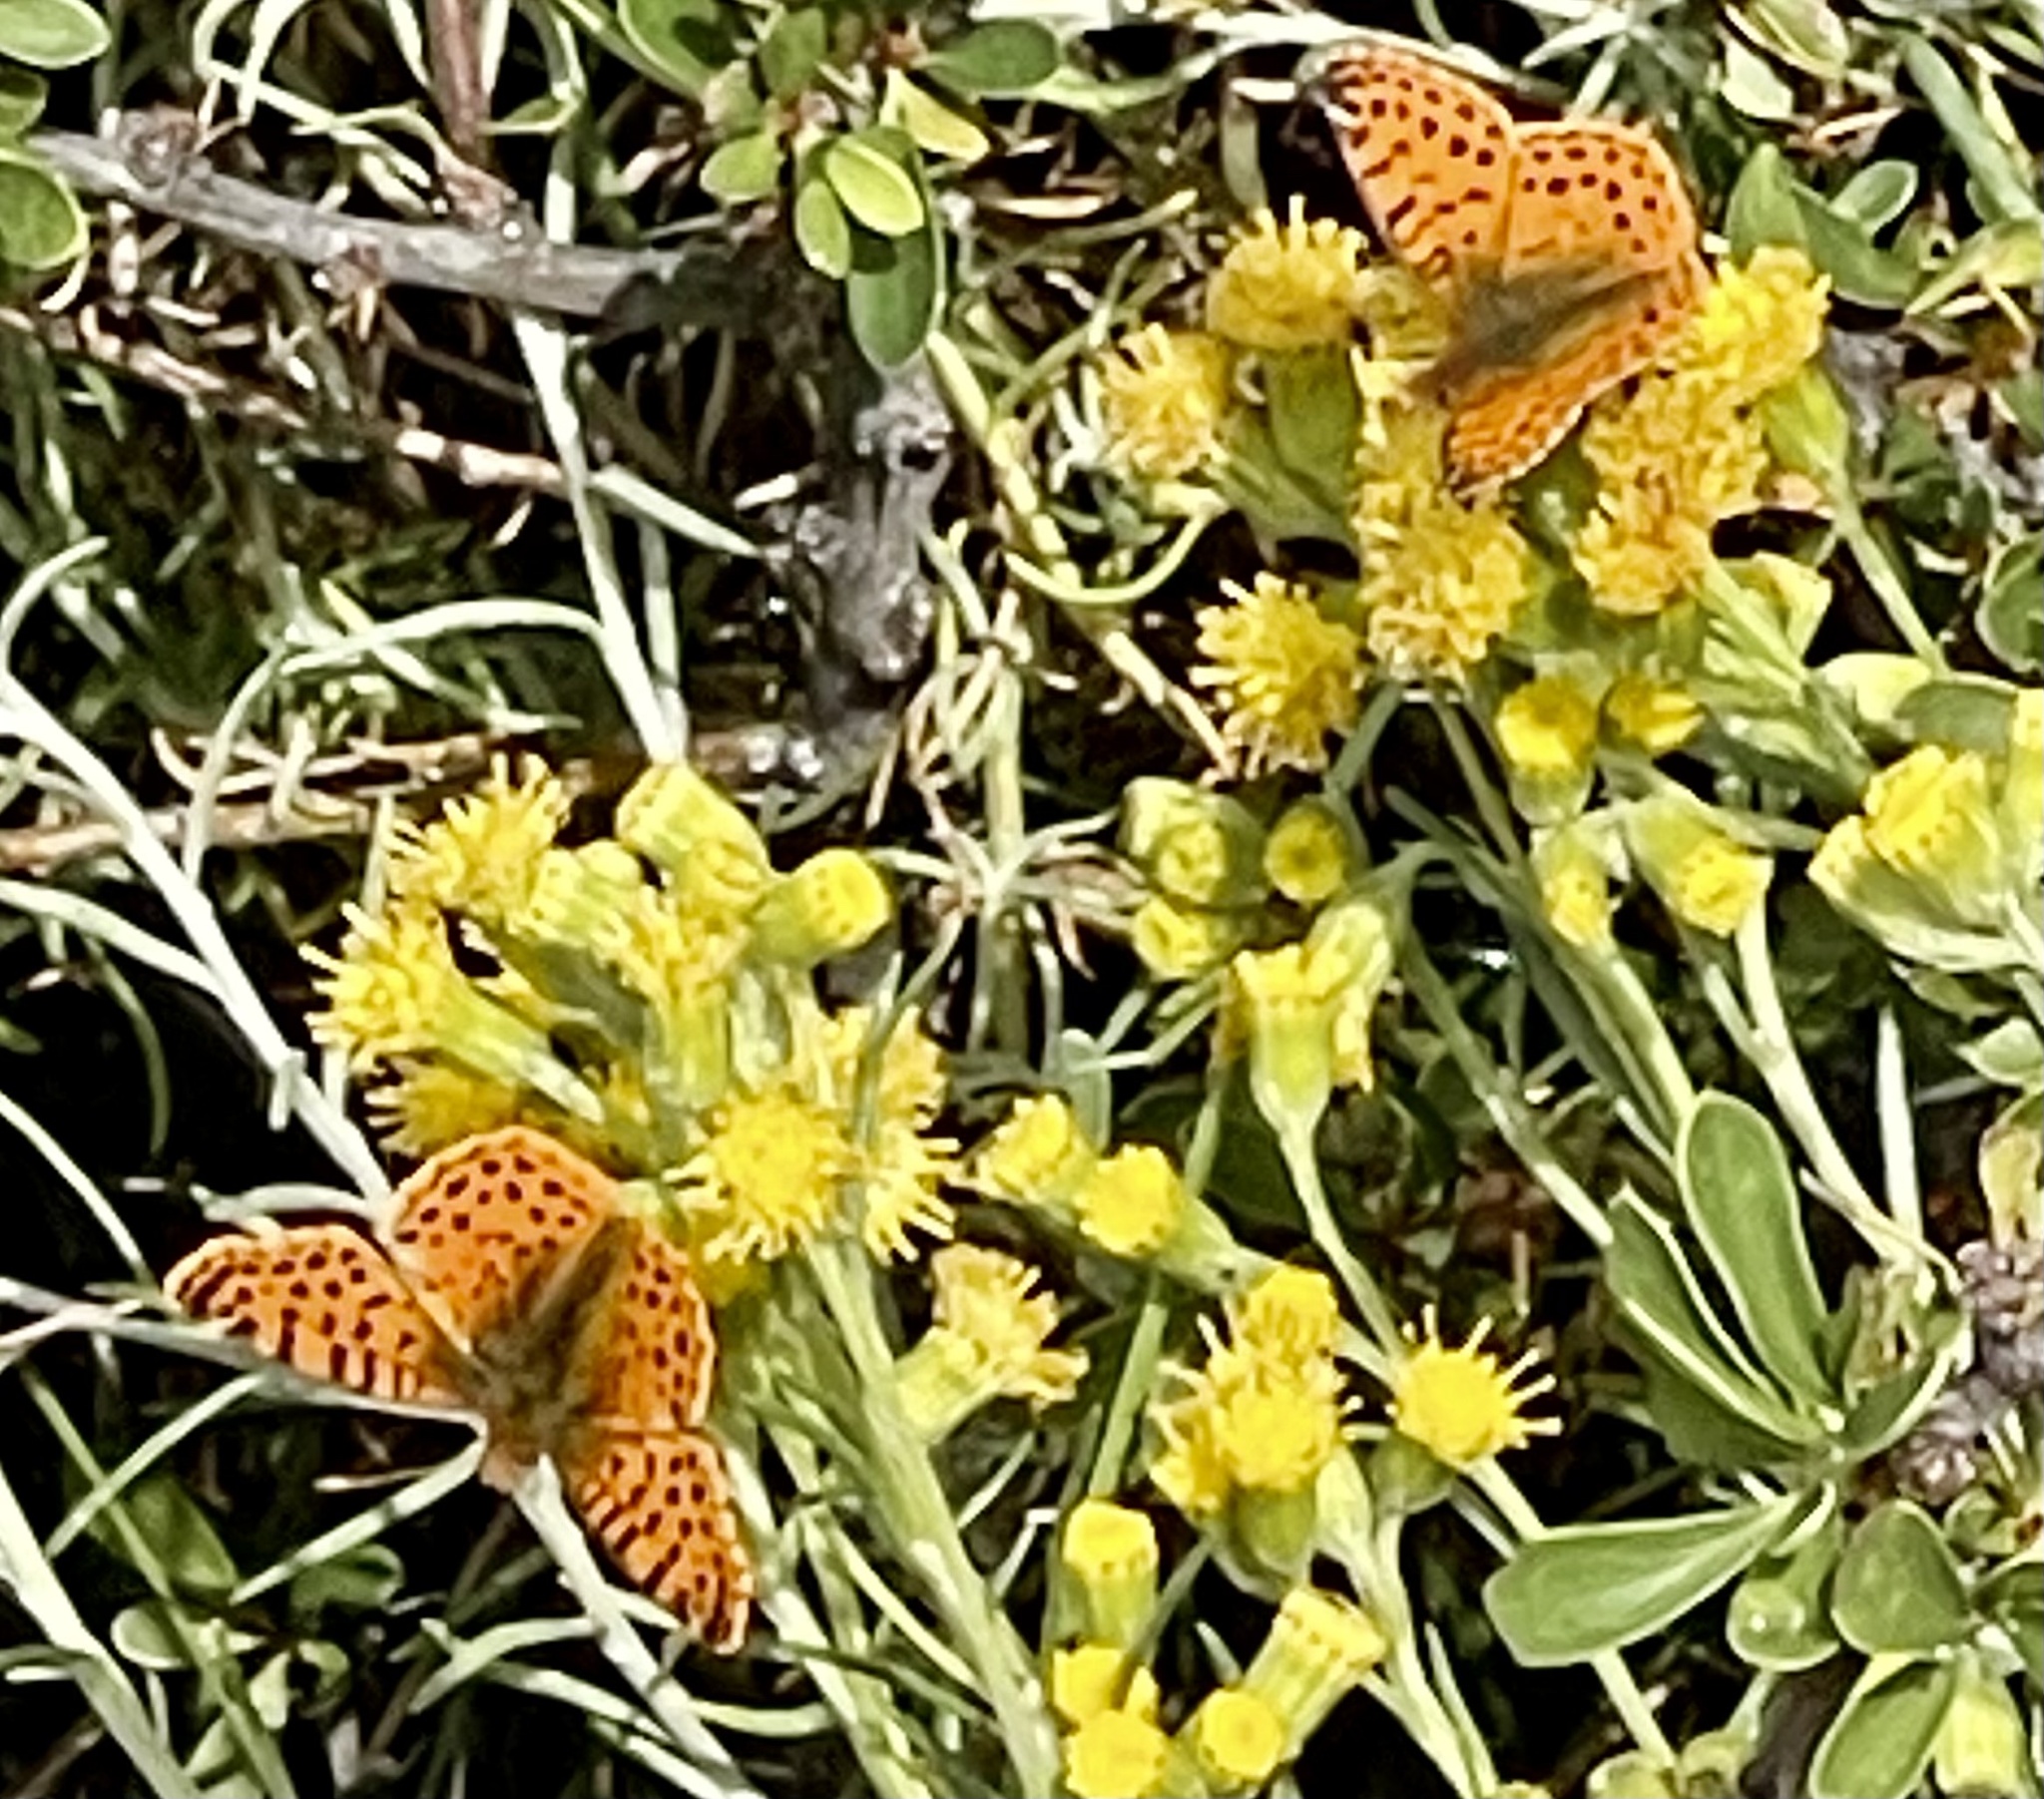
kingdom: Animalia
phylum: Arthropoda
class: Insecta
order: Lepidoptera
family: Nymphalidae
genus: Issoria
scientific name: Issoria Yramea cytheris
